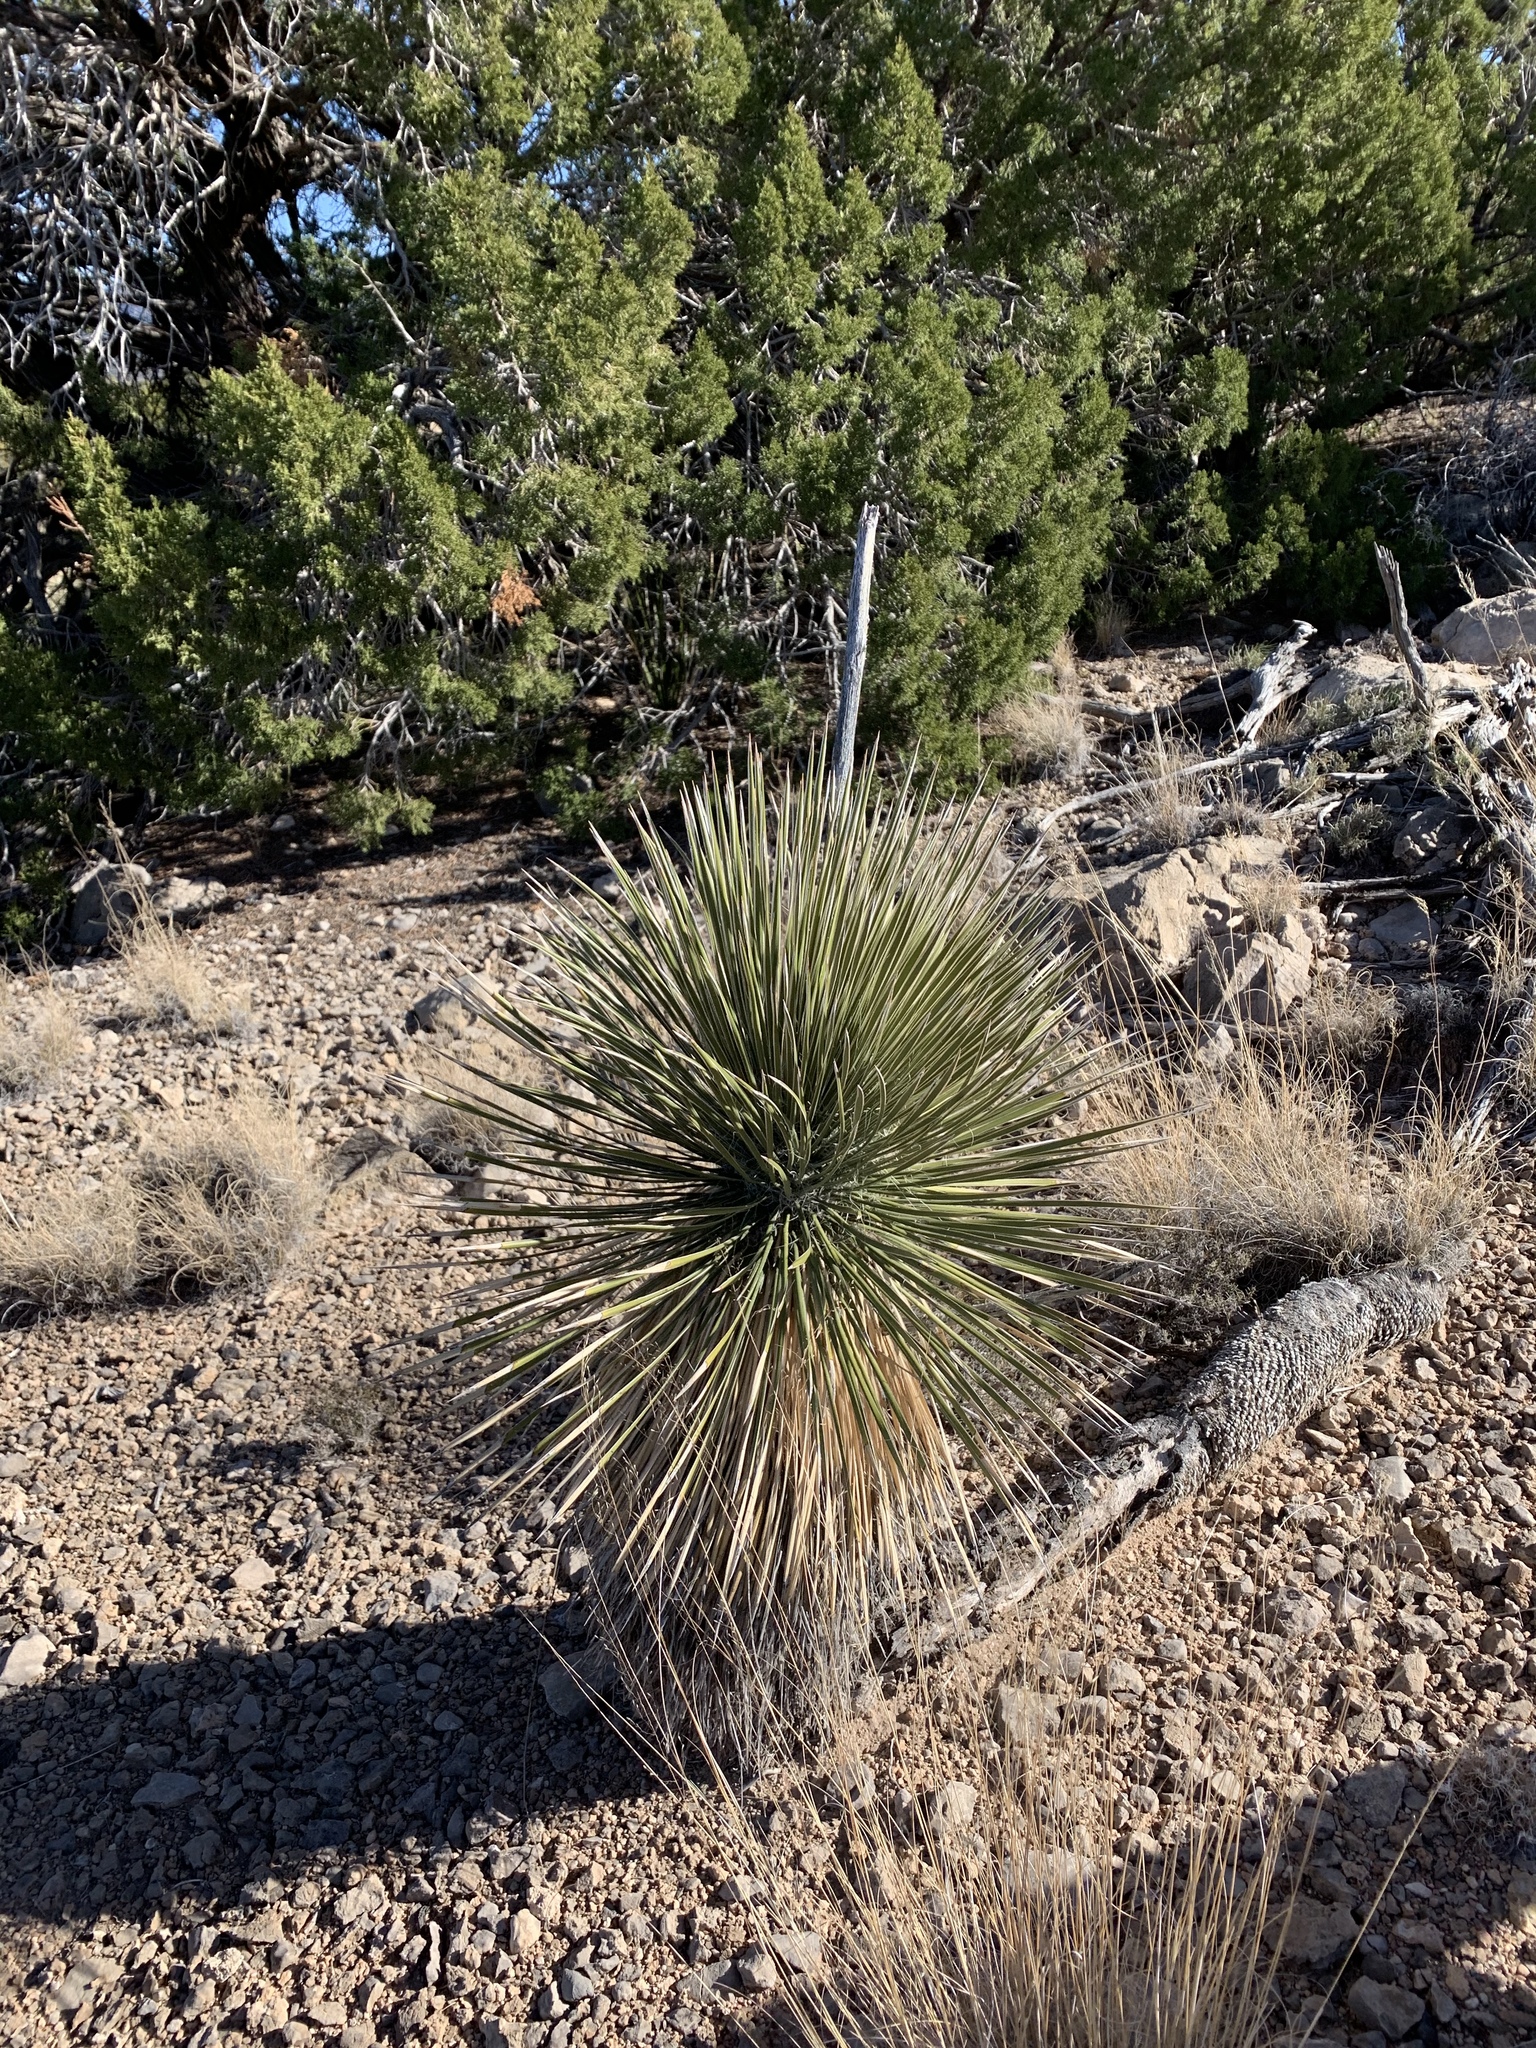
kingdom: Plantae
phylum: Tracheophyta
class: Liliopsida
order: Asparagales
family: Asparagaceae
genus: Yucca
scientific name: Yucca elata
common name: Palmella
